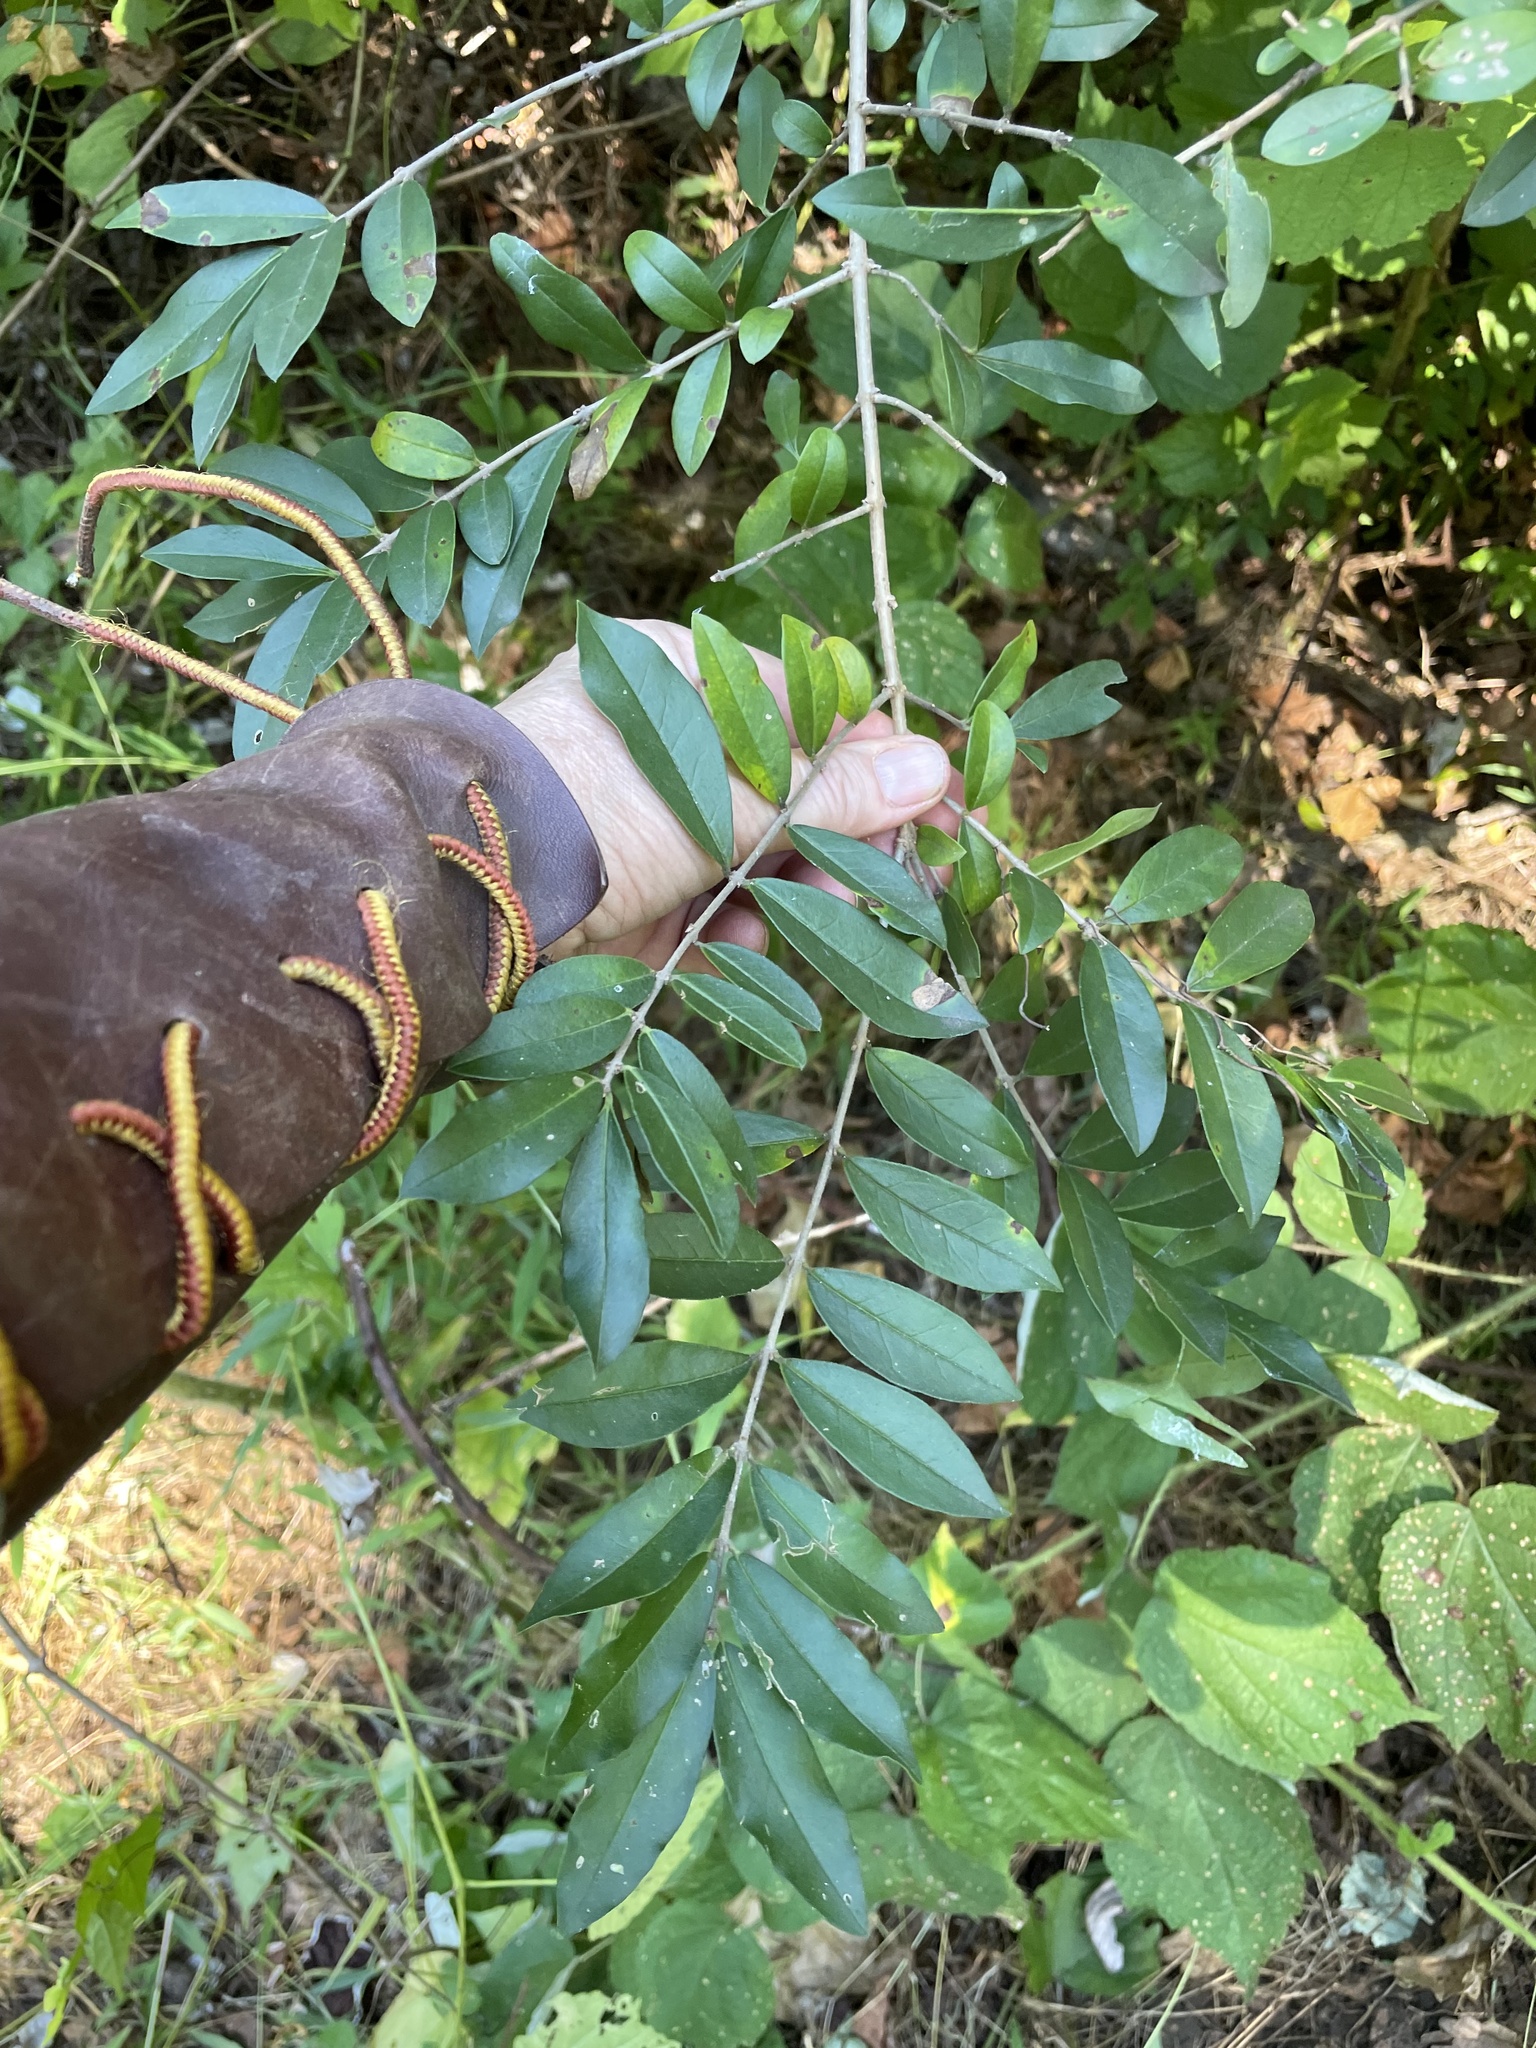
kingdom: Plantae
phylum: Tracheophyta
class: Magnoliopsida
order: Lamiales
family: Oleaceae
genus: Ligustrum
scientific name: Ligustrum obtusifolium
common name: Border privet
